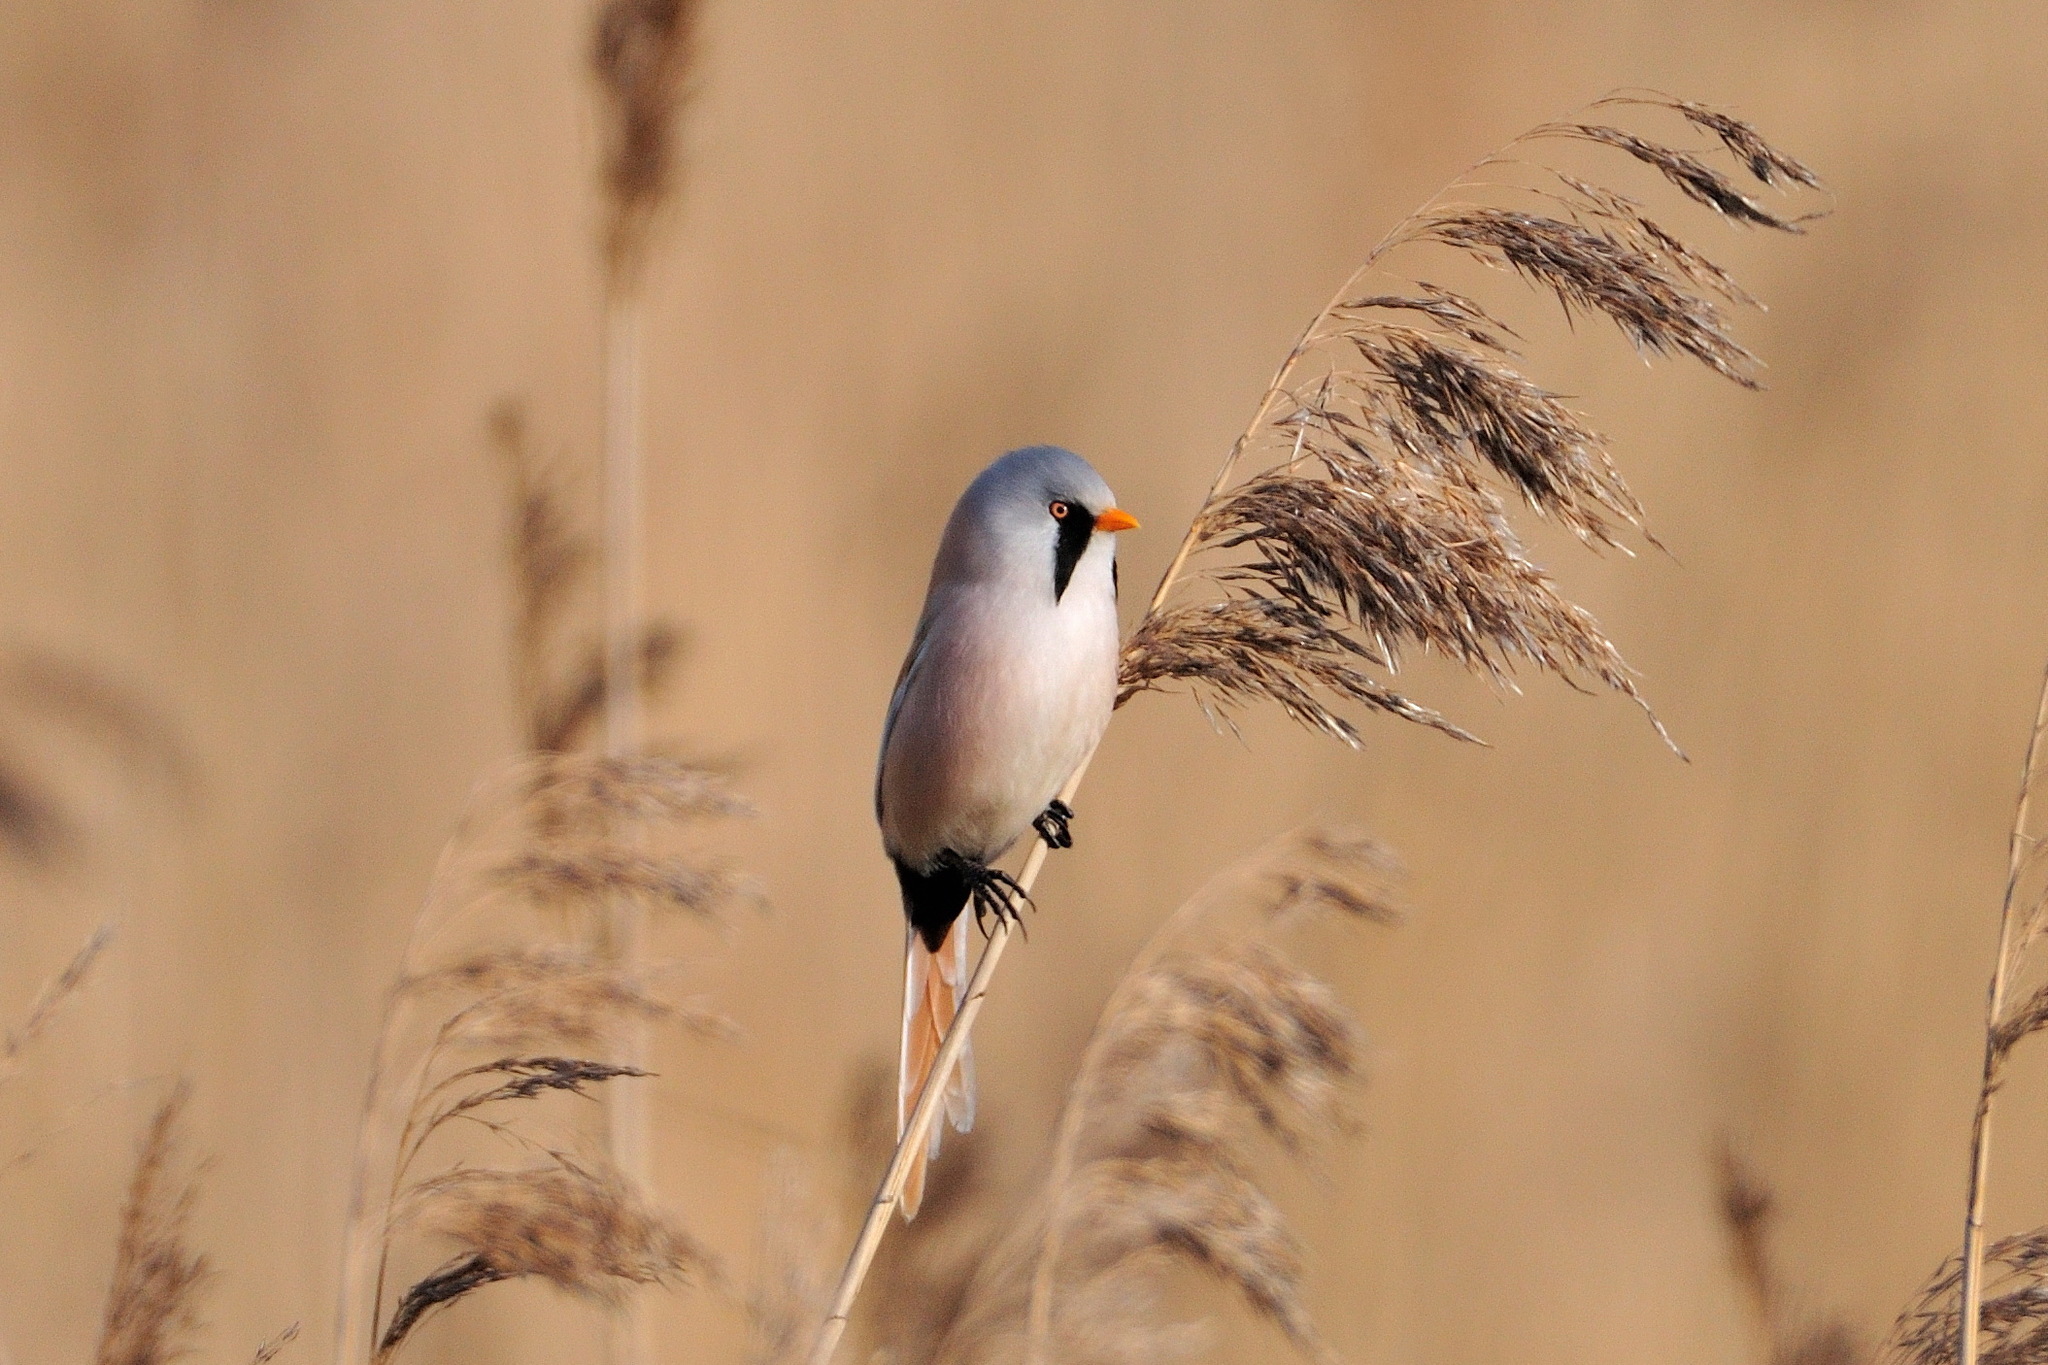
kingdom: Animalia
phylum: Chordata
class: Aves
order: Passeriformes
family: Panuridae
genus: Panurus
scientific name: Panurus biarmicus
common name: Bearded reedling
